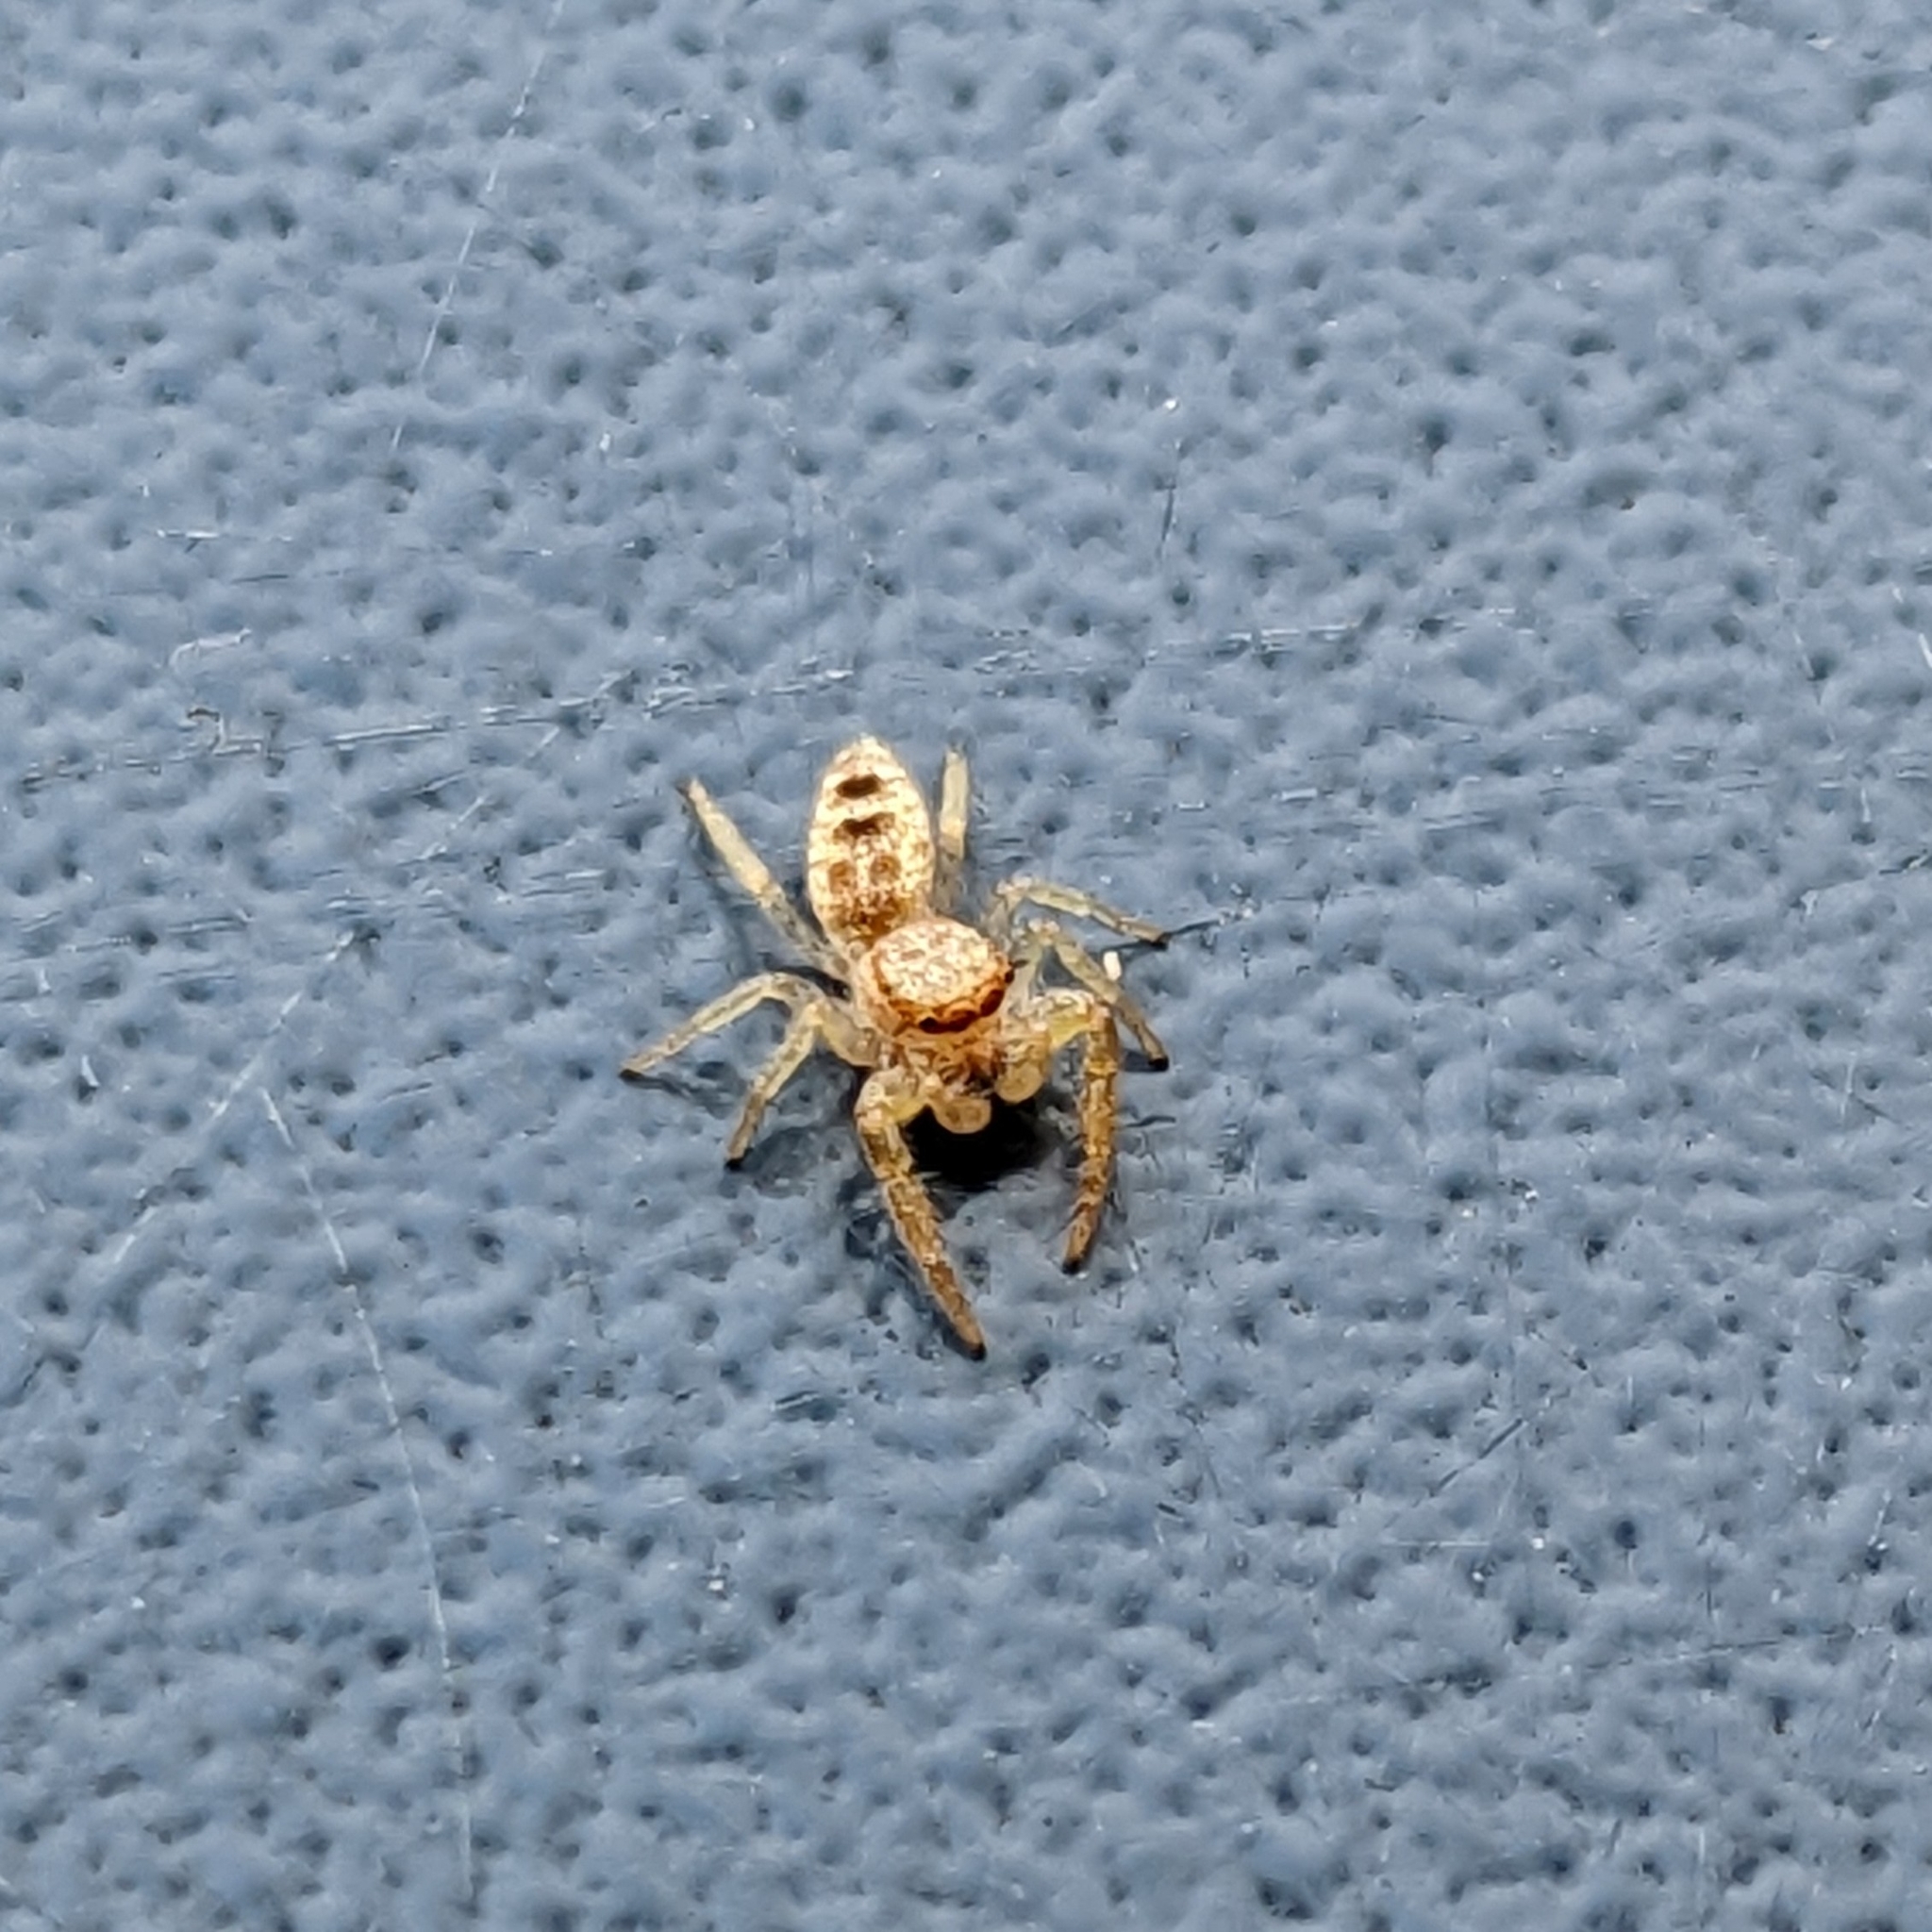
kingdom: Animalia
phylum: Arthropoda
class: Arachnida
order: Araneae
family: Salticidae
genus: Hentzia
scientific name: Hentzia mitrata
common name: White-jawed jumping spider
